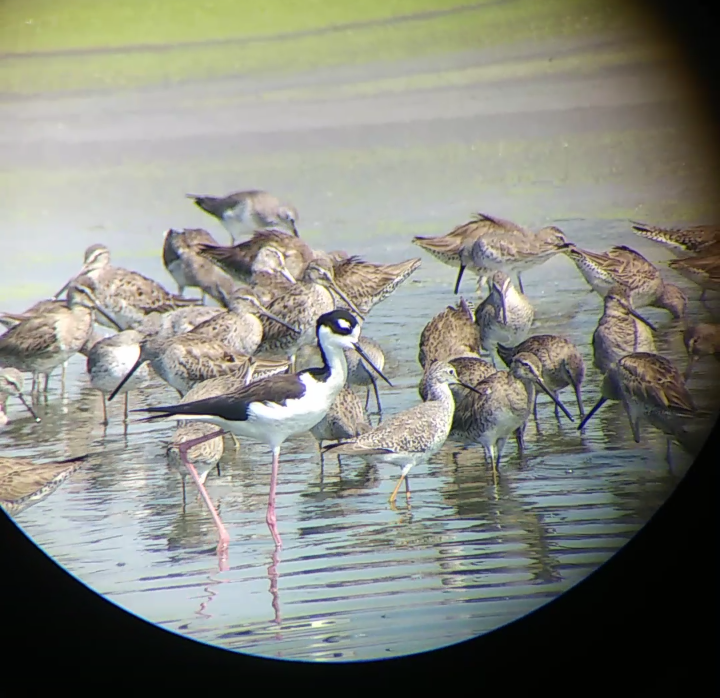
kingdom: Animalia
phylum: Chordata
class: Aves
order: Charadriiformes
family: Scolopacidae
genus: Tringa
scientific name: Tringa flavipes
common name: Lesser yellowlegs
